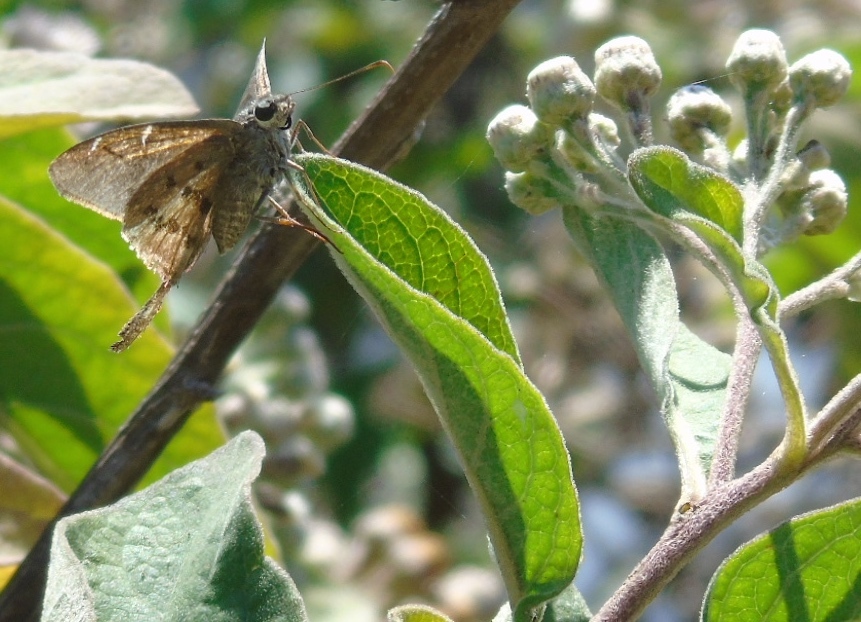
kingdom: Animalia
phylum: Arthropoda
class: Insecta
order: Lepidoptera
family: Hesperiidae
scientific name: Hesperiidae
